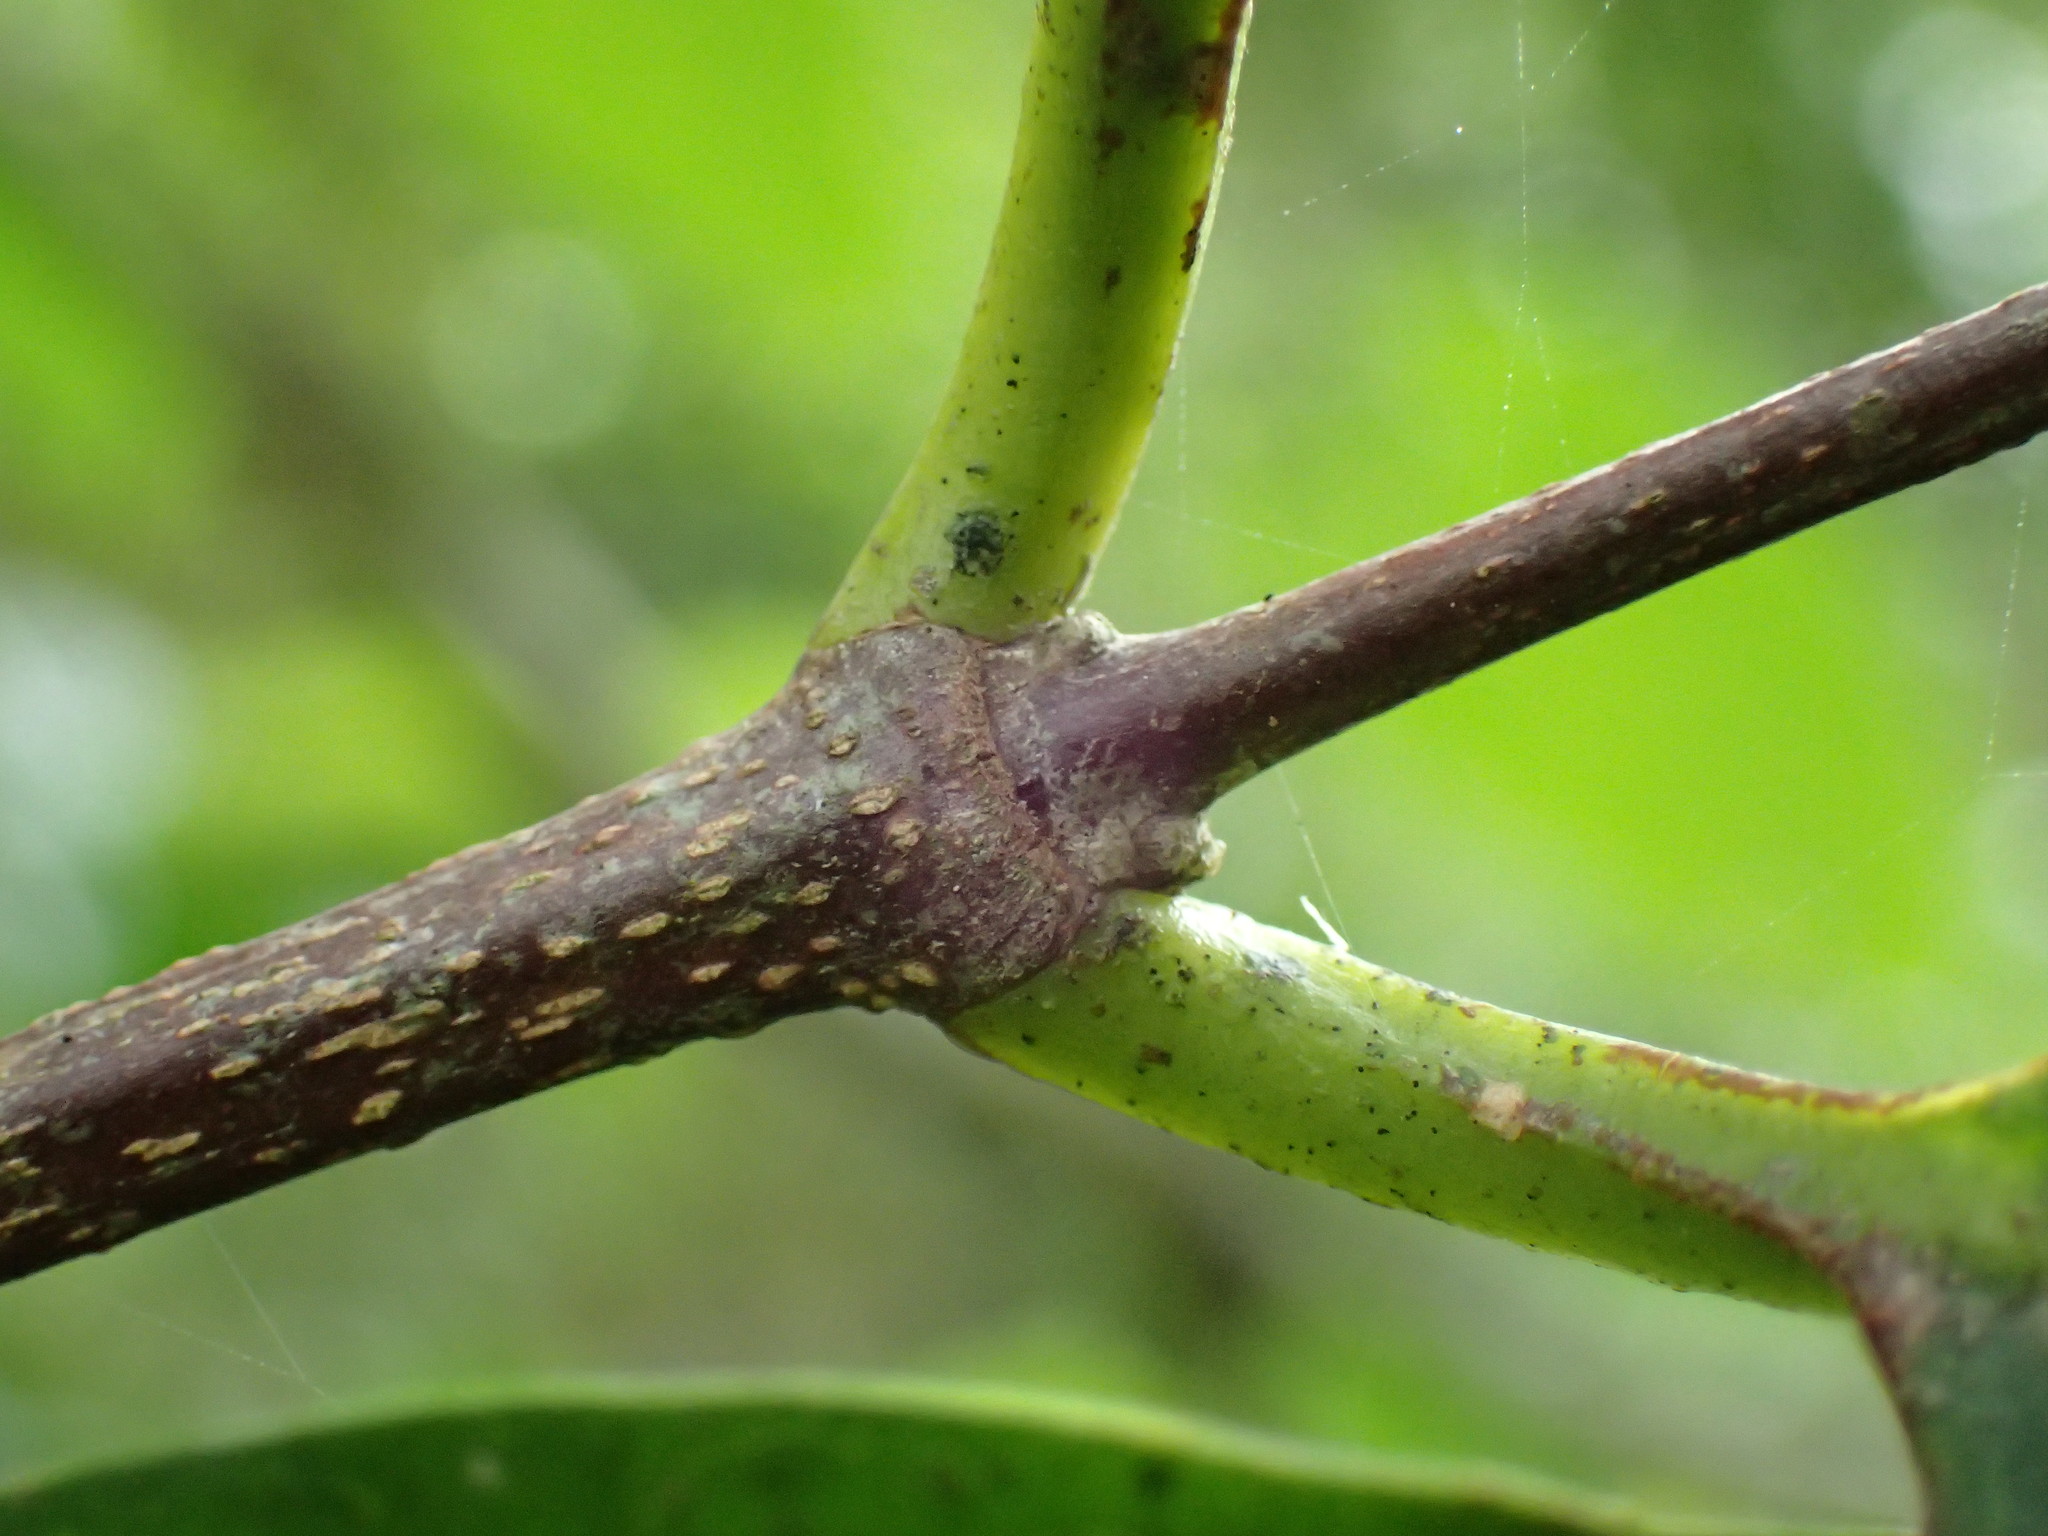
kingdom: Plantae
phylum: Tracheophyta
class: Magnoliopsida
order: Malpighiales
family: Achariaceae
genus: Rawsonia
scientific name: Rawsonia lucida
